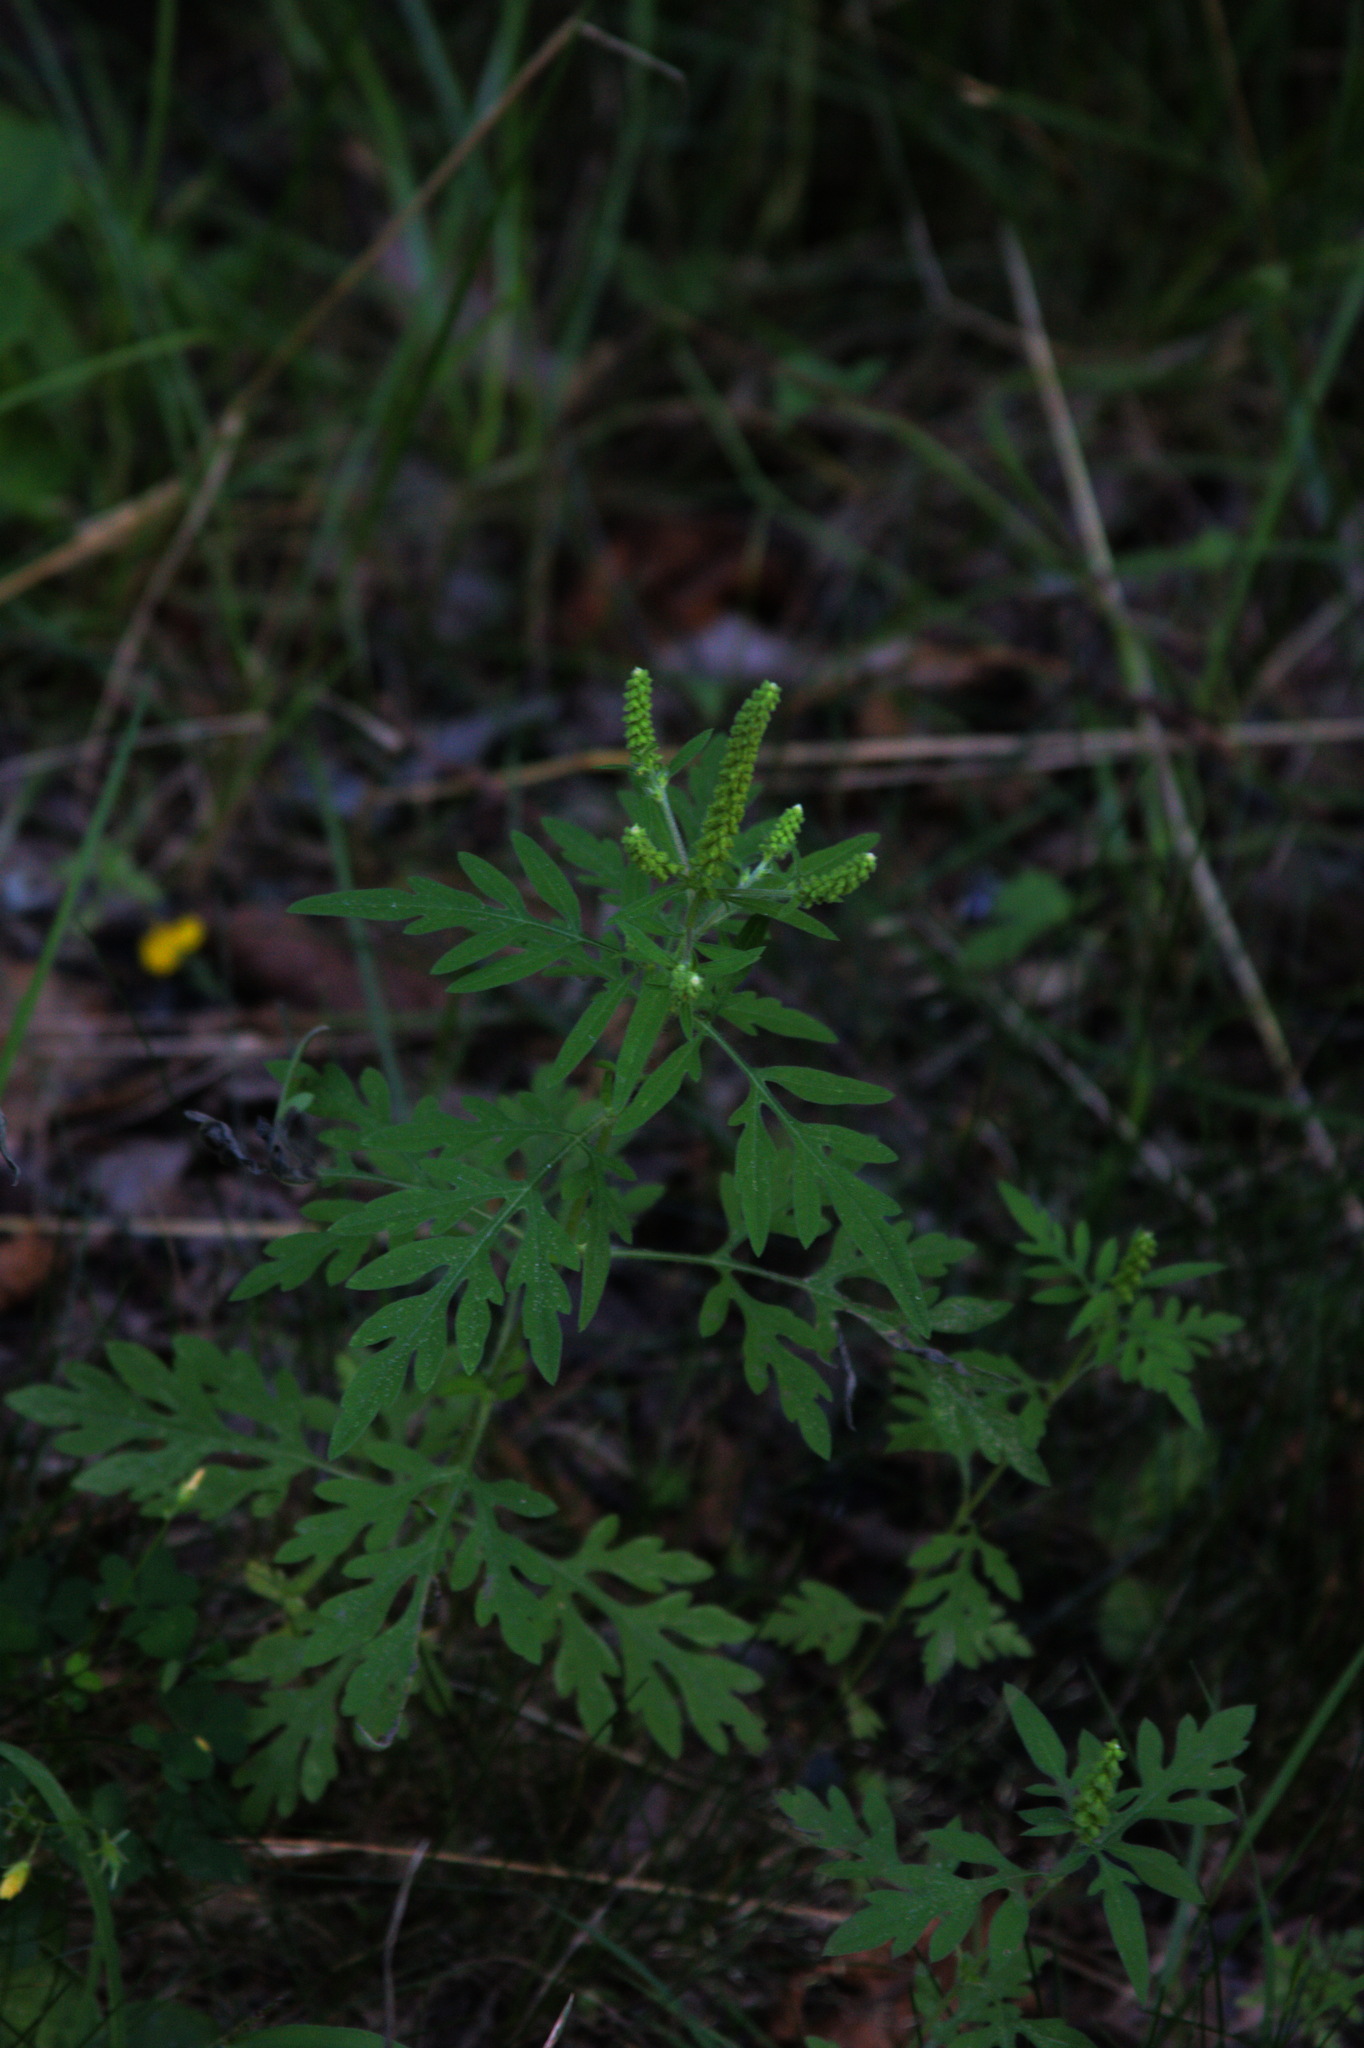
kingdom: Plantae
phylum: Tracheophyta
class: Magnoliopsida
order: Asterales
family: Asteraceae
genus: Ambrosia
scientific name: Ambrosia artemisiifolia
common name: Annual ragweed
